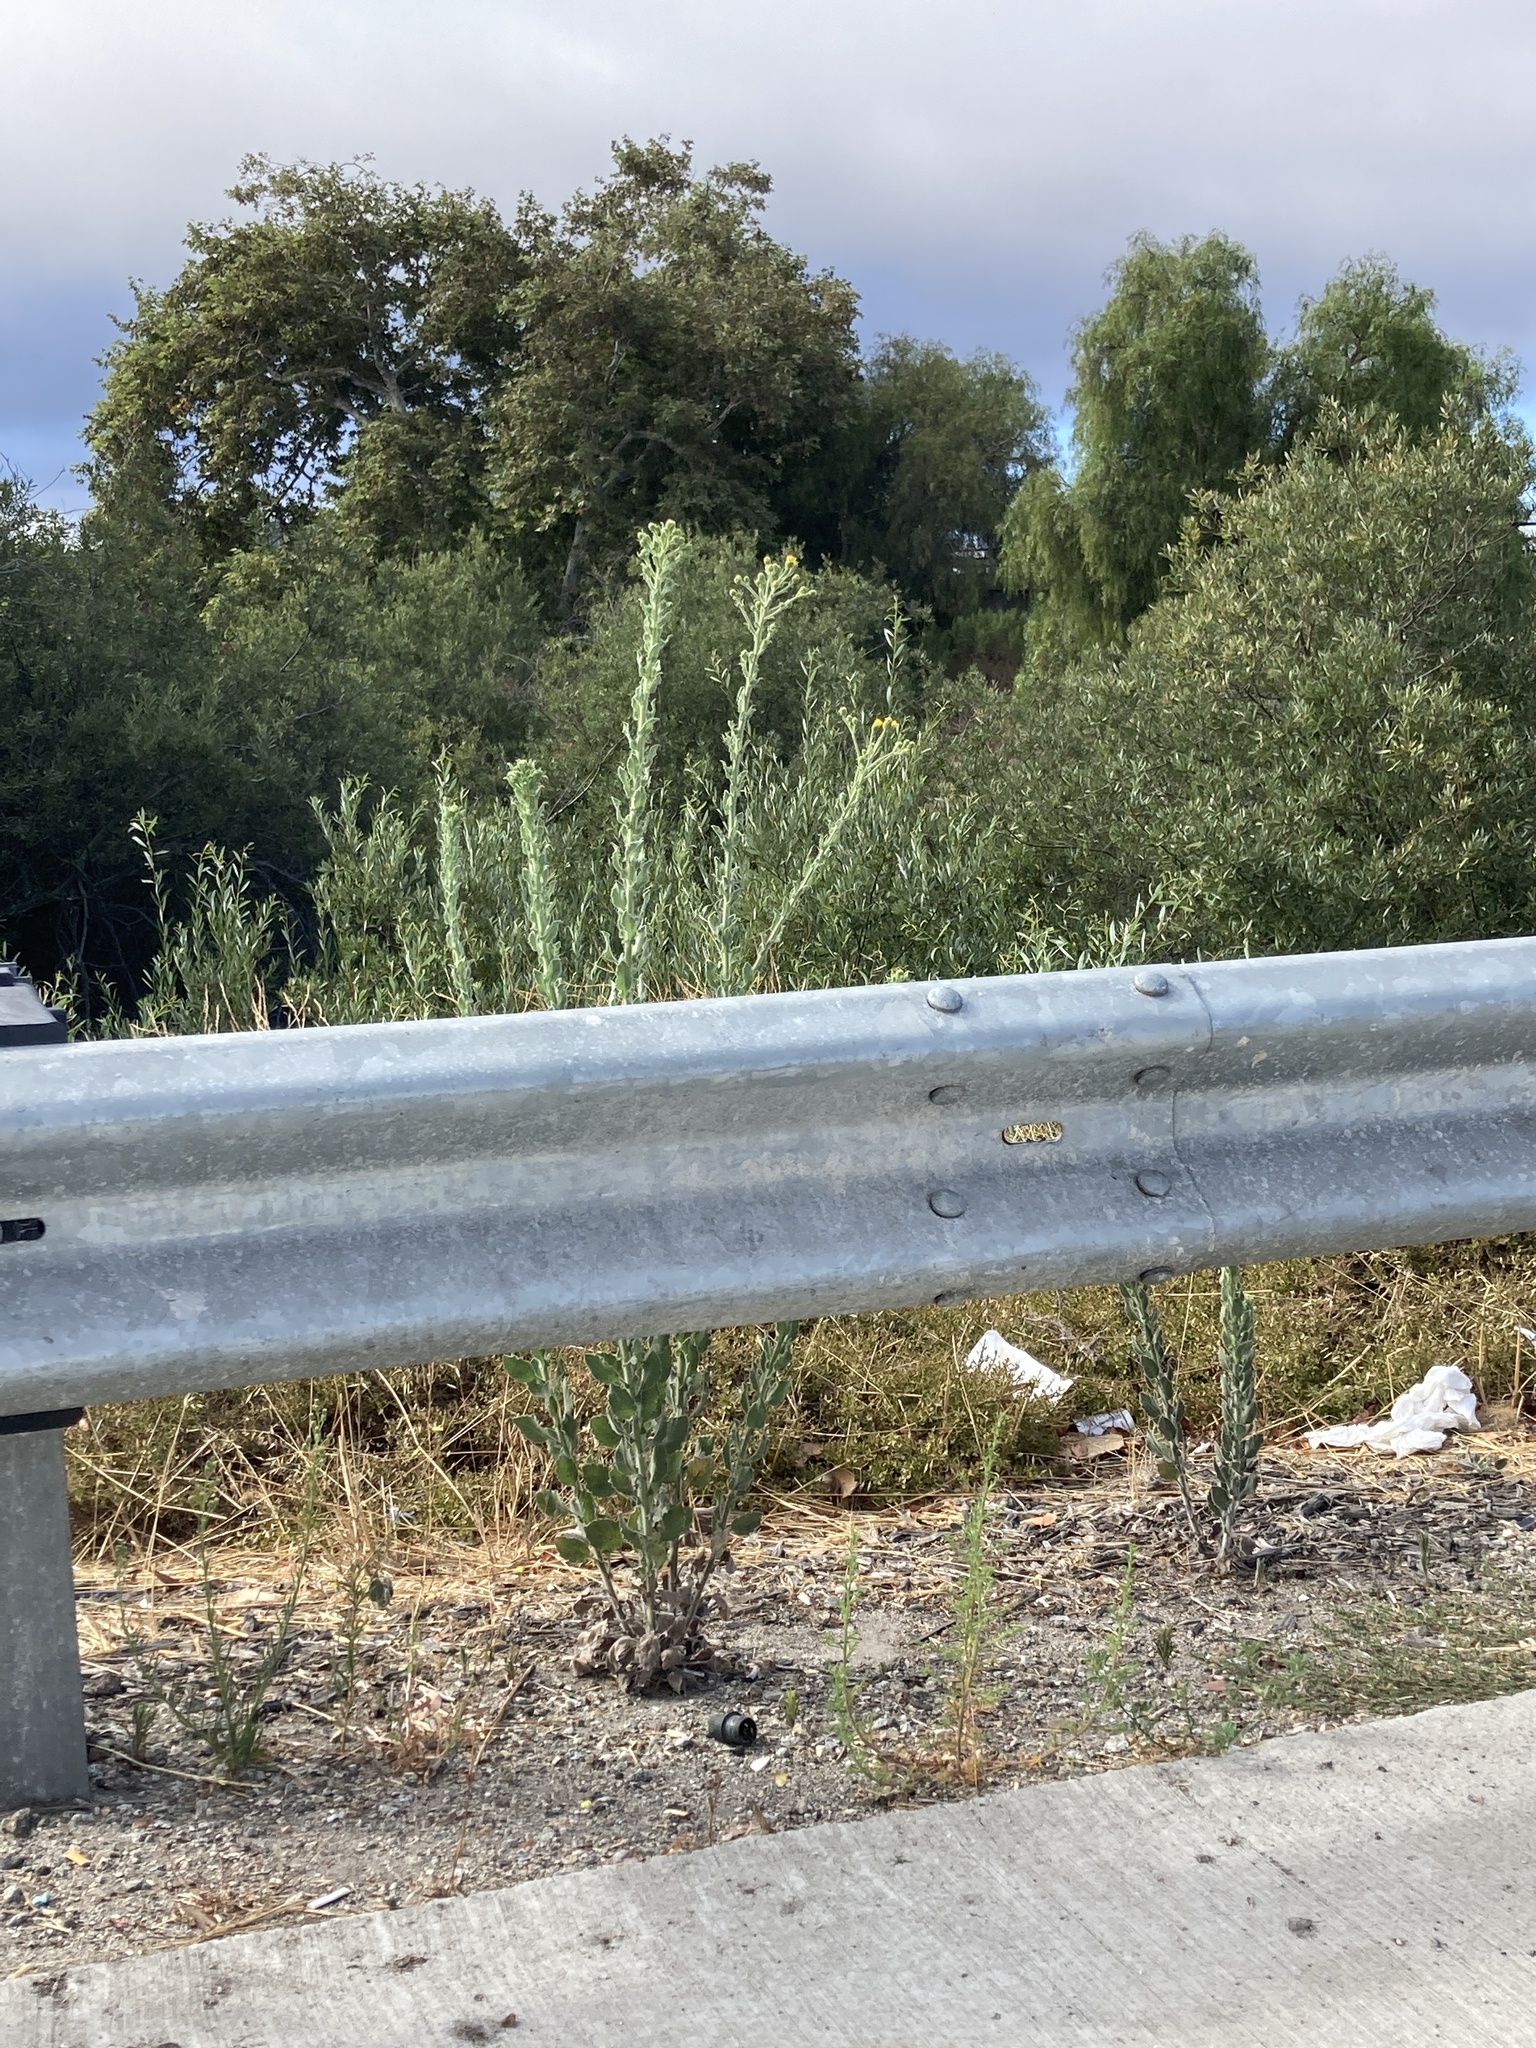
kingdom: Plantae
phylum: Tracheophyta
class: Magnoliopsida
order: Asterales
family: Asteraceae
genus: Heterotheca
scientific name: Heterotheca grandiflora
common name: Telegraphweed
